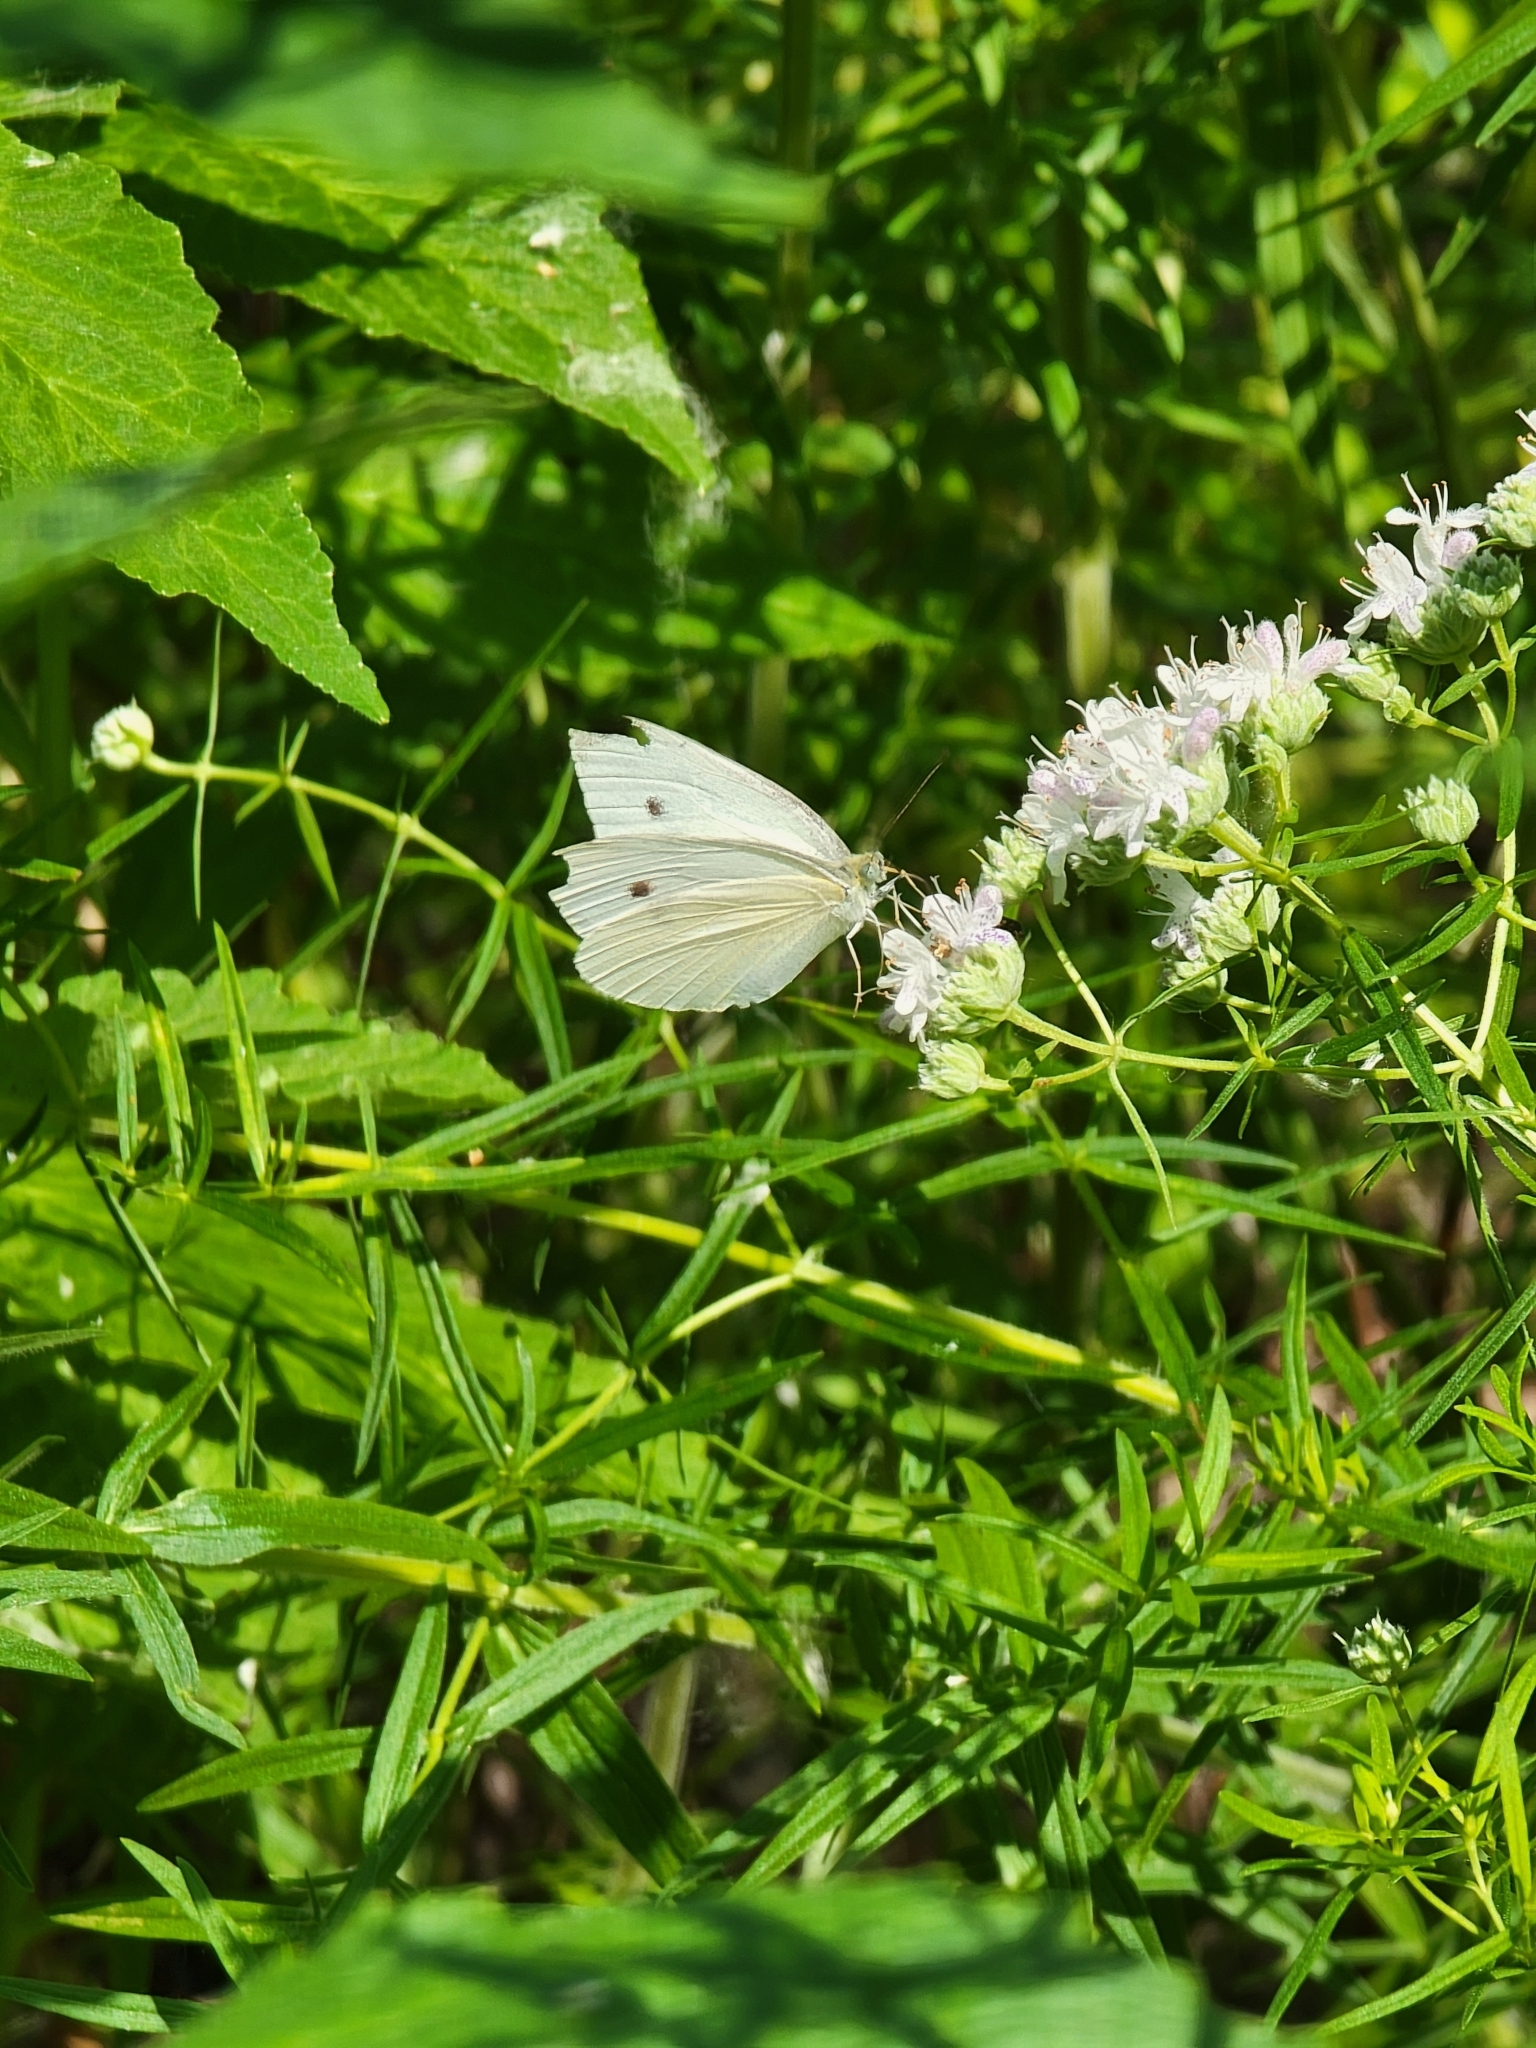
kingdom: Animalia
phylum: Arthropoda
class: Insecta
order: Lepidoptera
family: Pieridae
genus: Pieris
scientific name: Pieris rapae
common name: Small white
